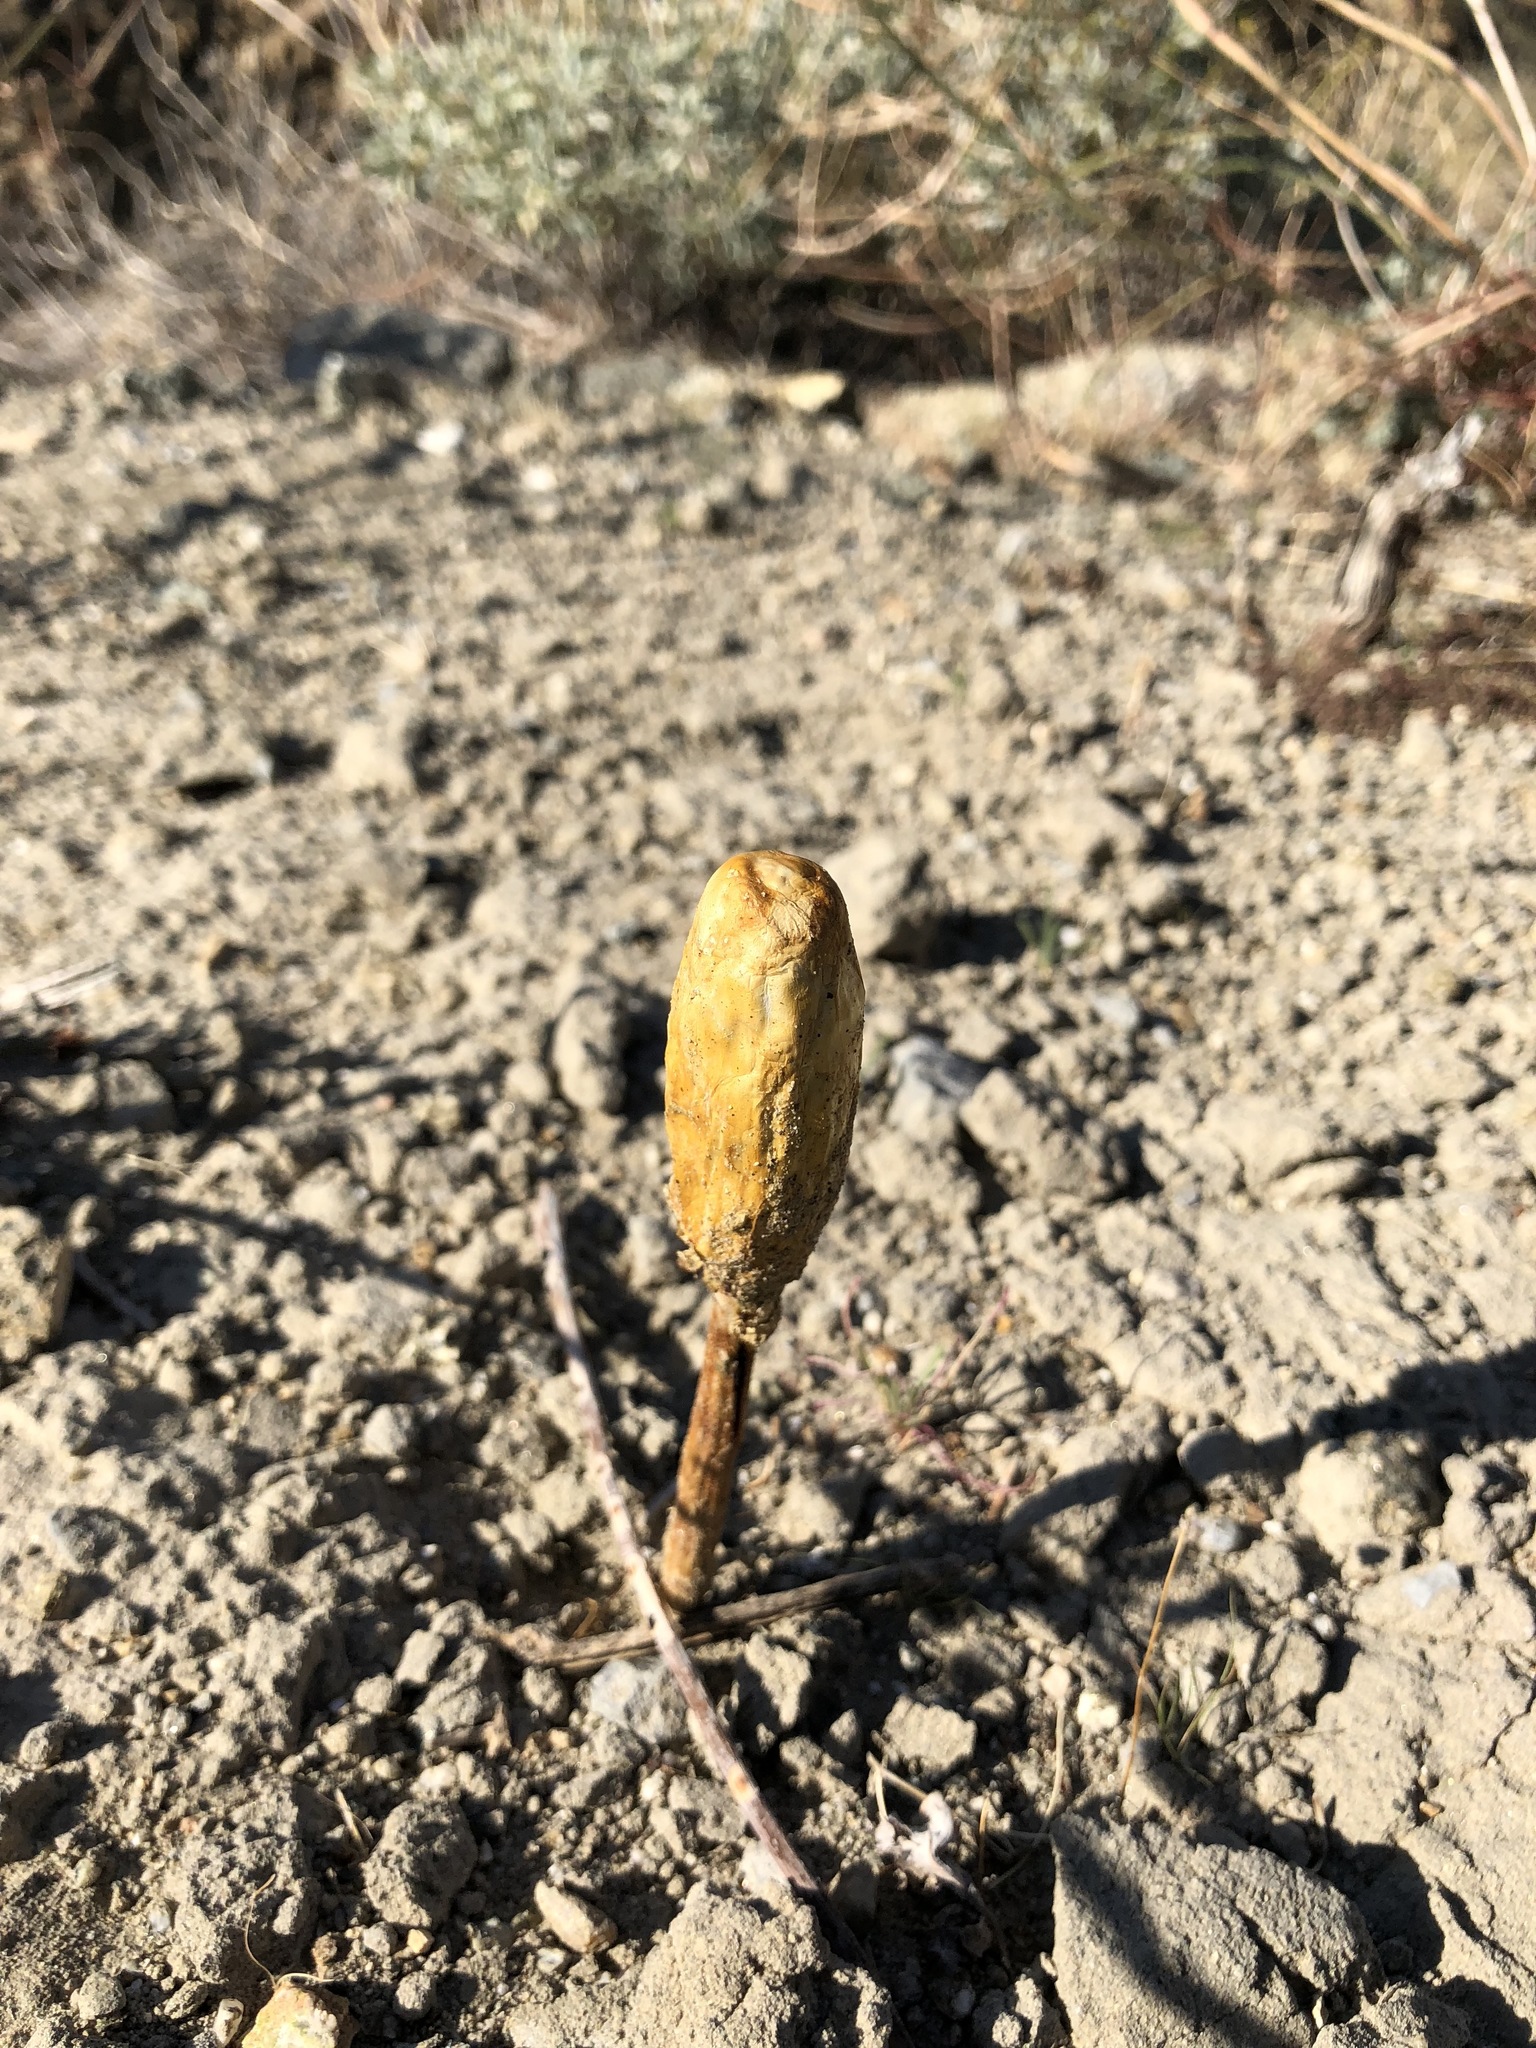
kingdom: Fungi
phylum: Basidiomycota
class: Agaricomycetes
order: Agaricales
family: Agaricaceae
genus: Podaxis
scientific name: Podaxis pistillaris
